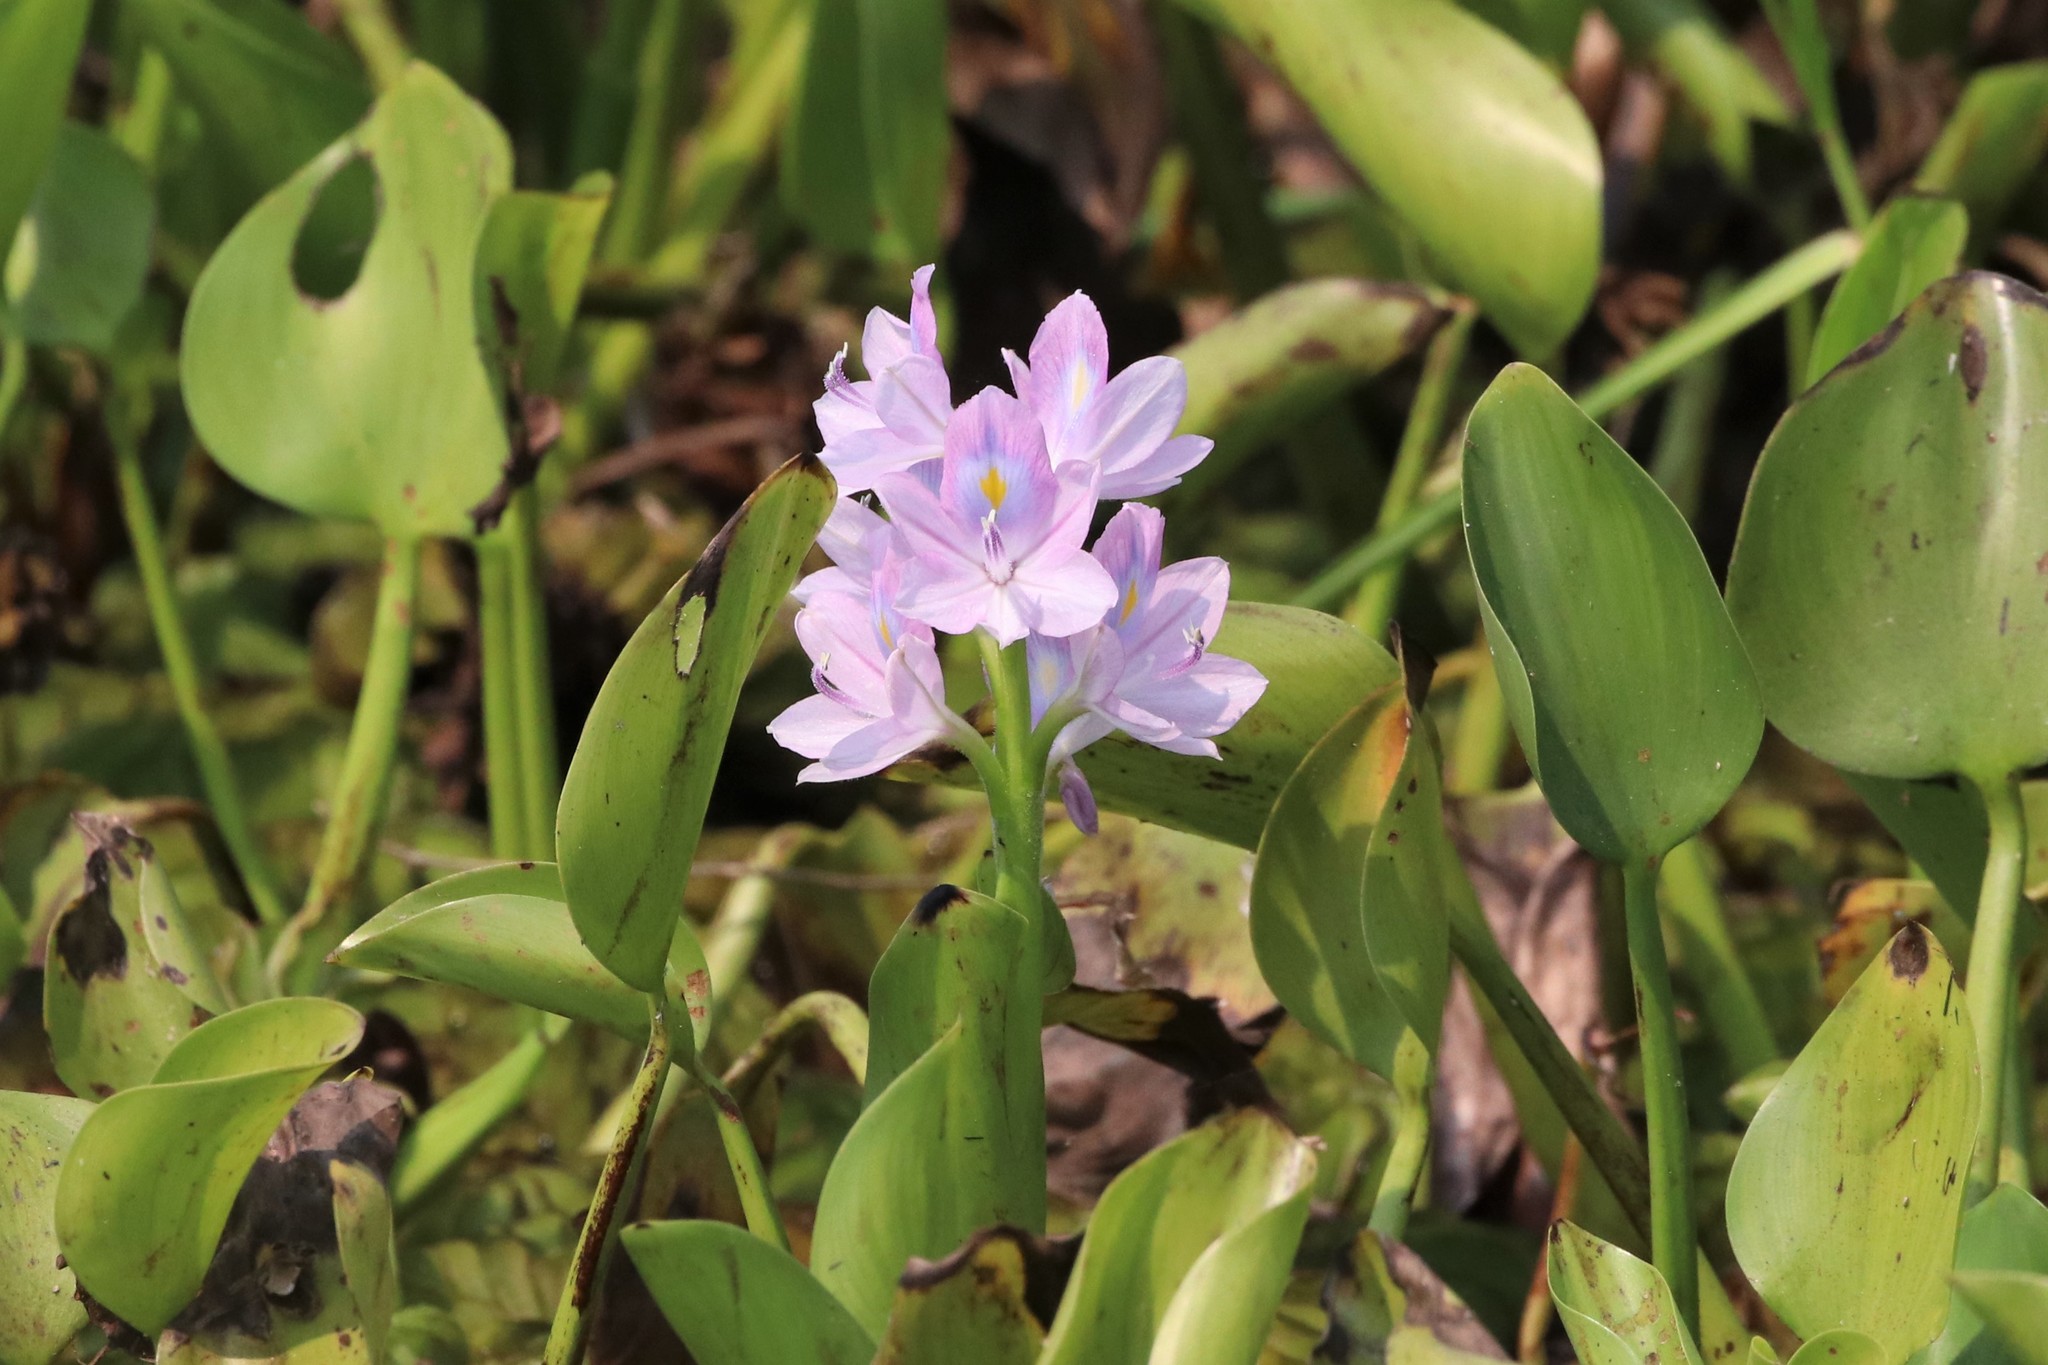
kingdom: Plantae
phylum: Tracheophyta
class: Liliopsida
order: Commelinales
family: Pontederiaceae
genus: Pontederia
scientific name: Pontederia crassipes
